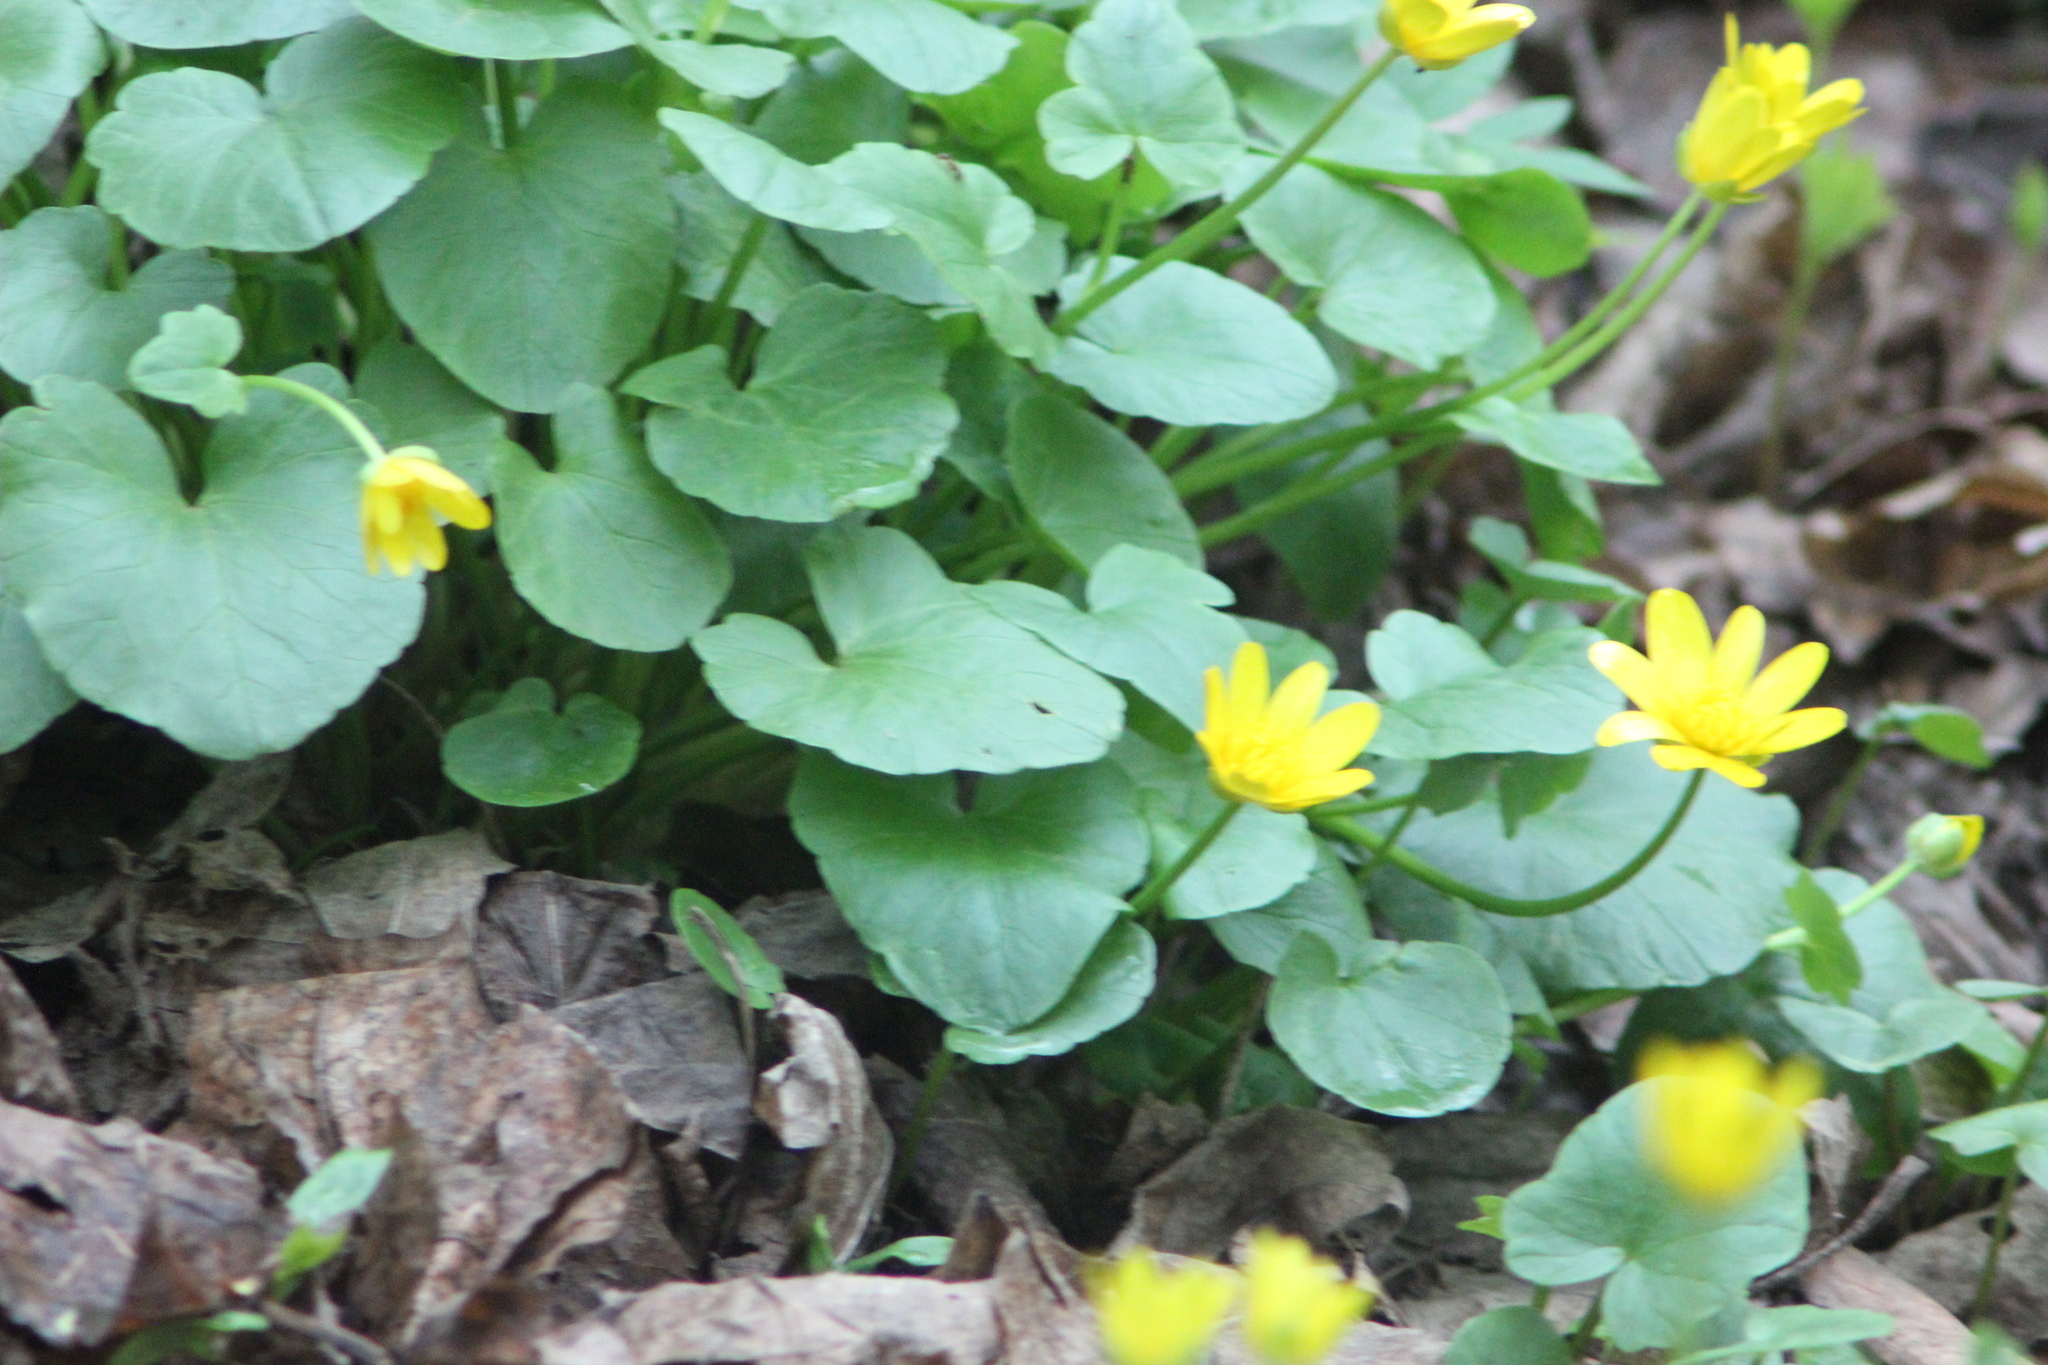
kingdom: Plantae
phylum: Tracheophyta
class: Magnoliopsida
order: Ranunculales
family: Ranunculaceae
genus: Ficaria
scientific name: Ficaria verna
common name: Lesser celandine
